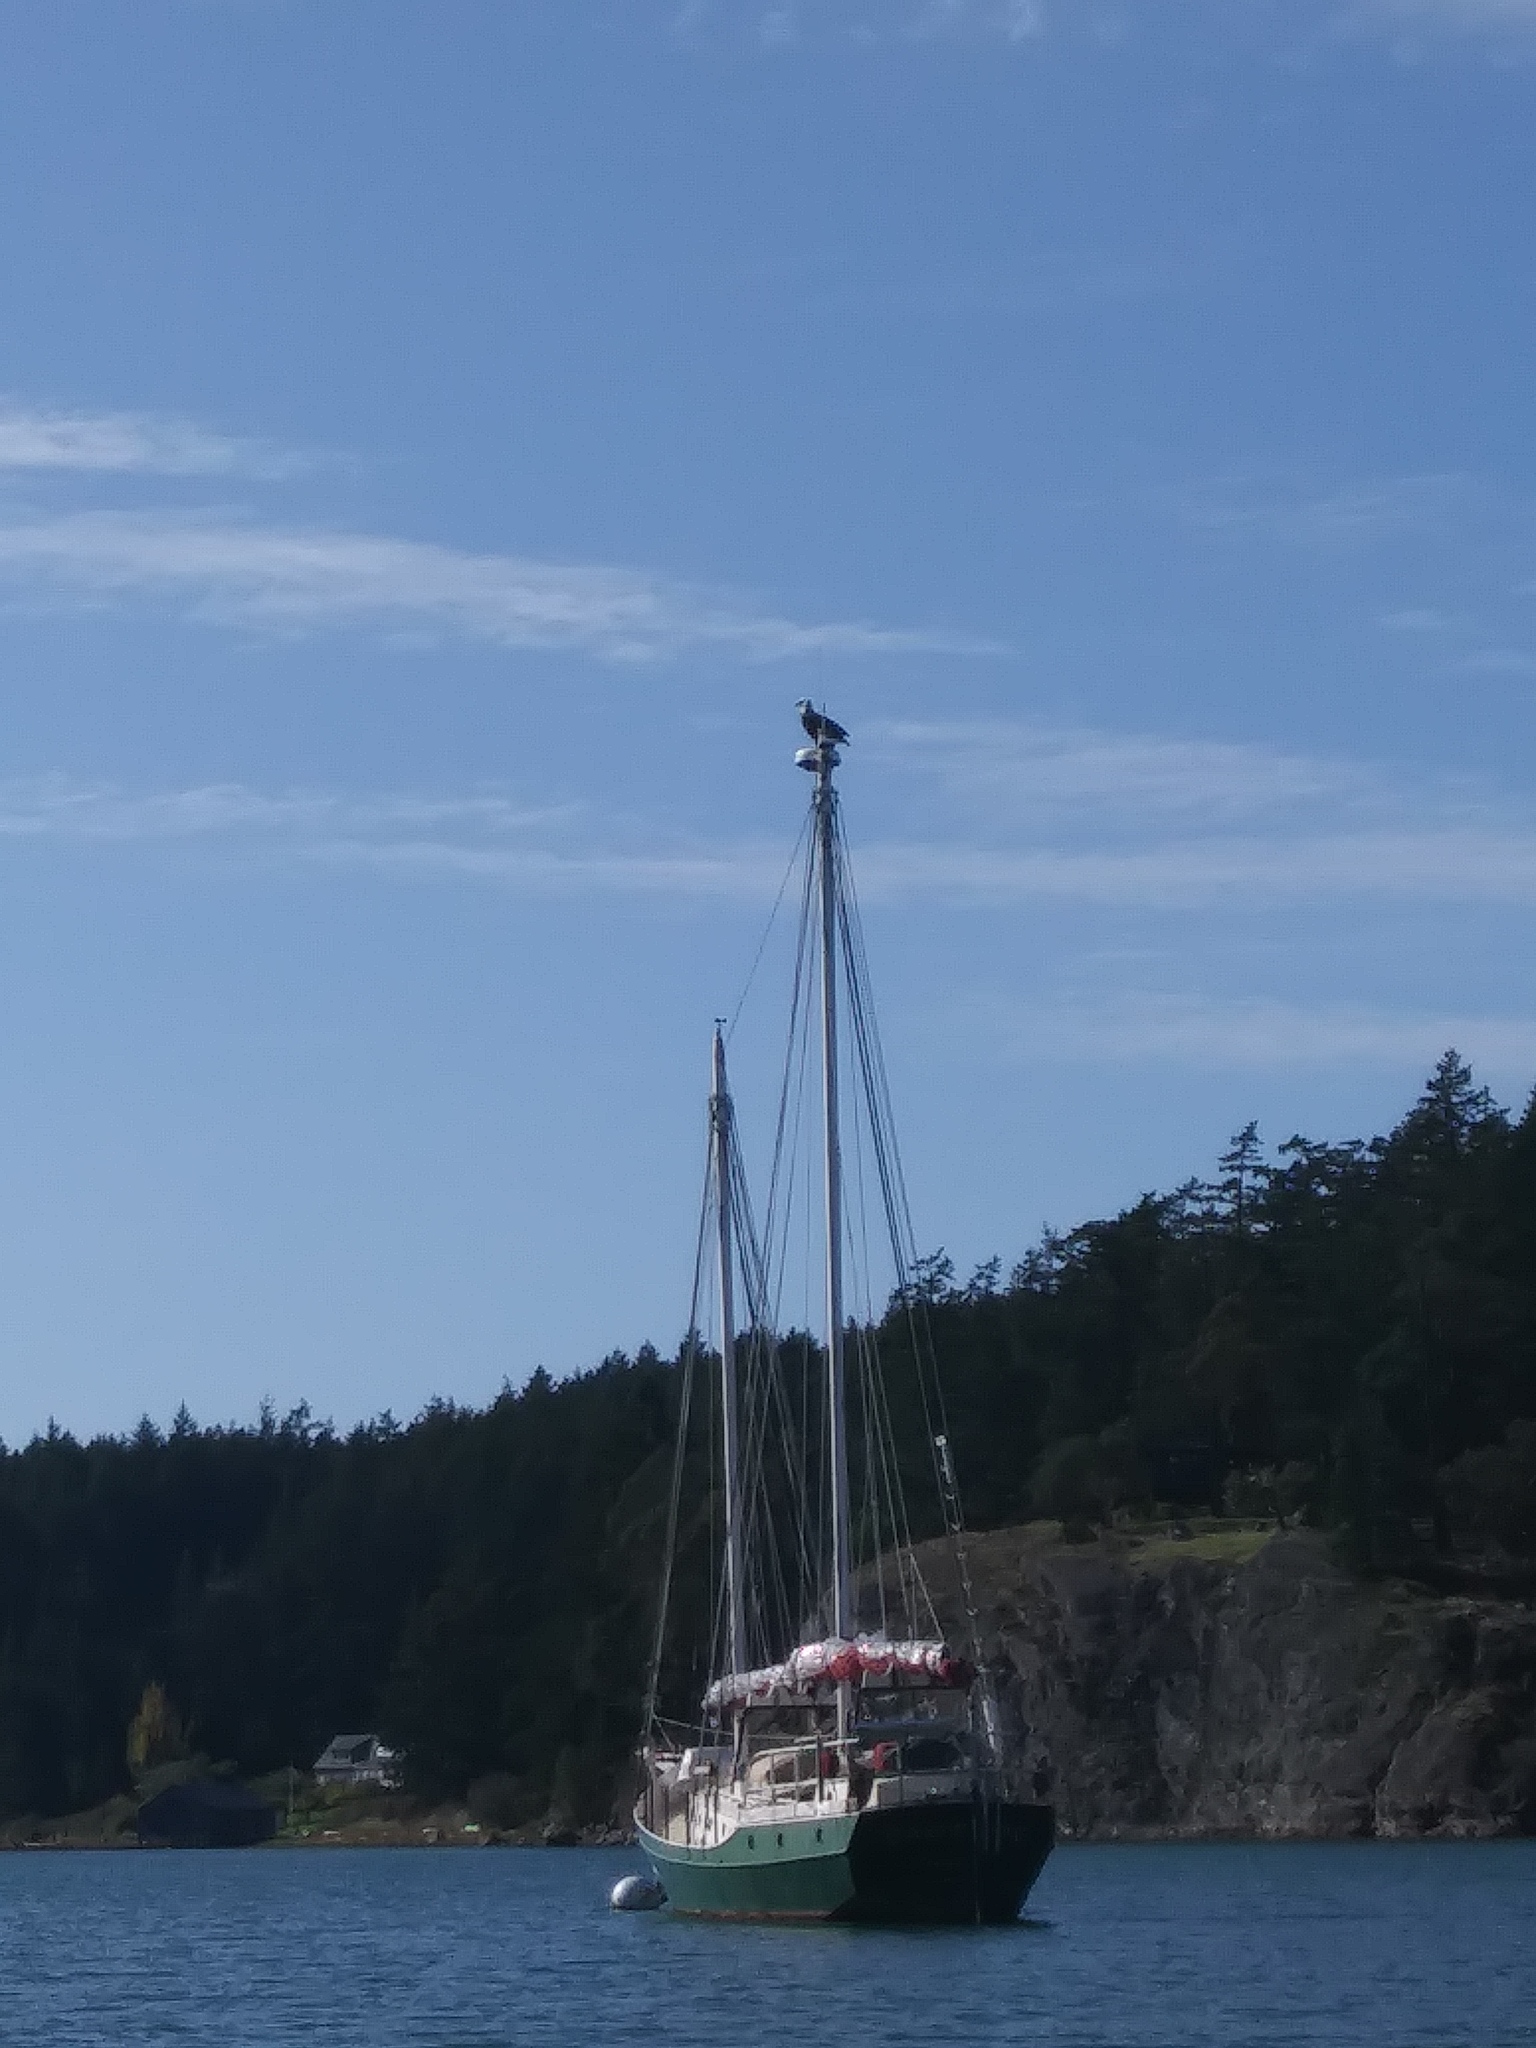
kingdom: Animalia
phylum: Chordata
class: Aves
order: Accipitriformes
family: Accipitridae
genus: Haliaeetus
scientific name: Haliaeetus leucocephalus
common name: Bald eagle
